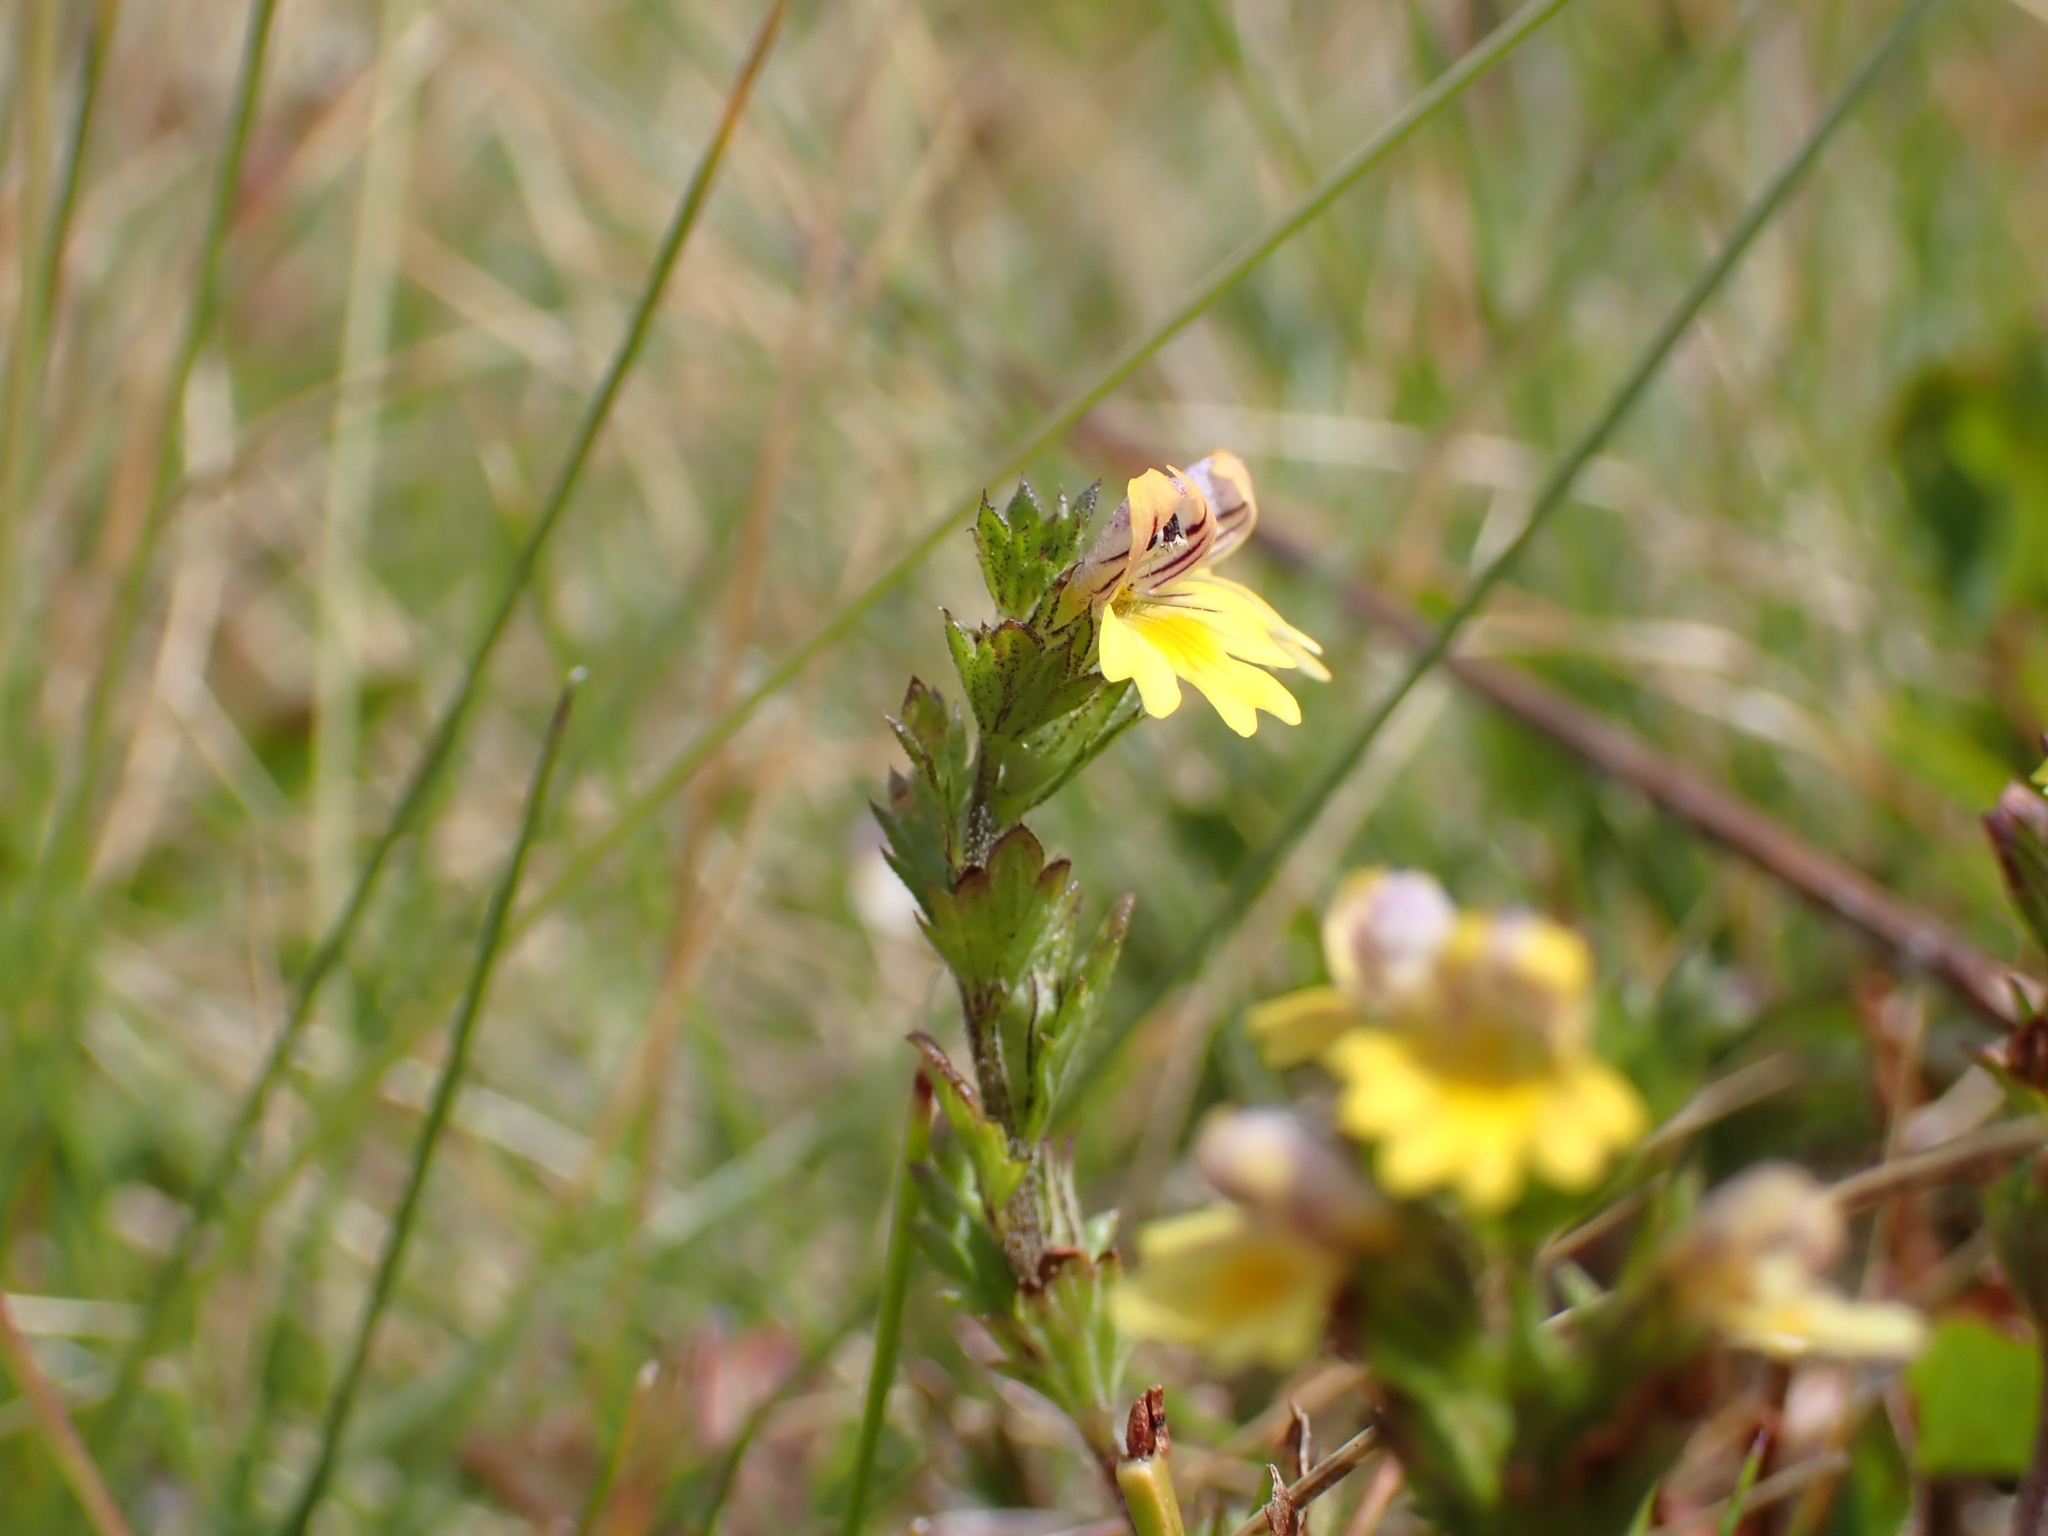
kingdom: Plantae
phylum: Tracheophyta
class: Magnoliopsida
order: Lamiales
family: Orobanchaceae
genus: Euphrasia
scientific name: Euphrasia minima
